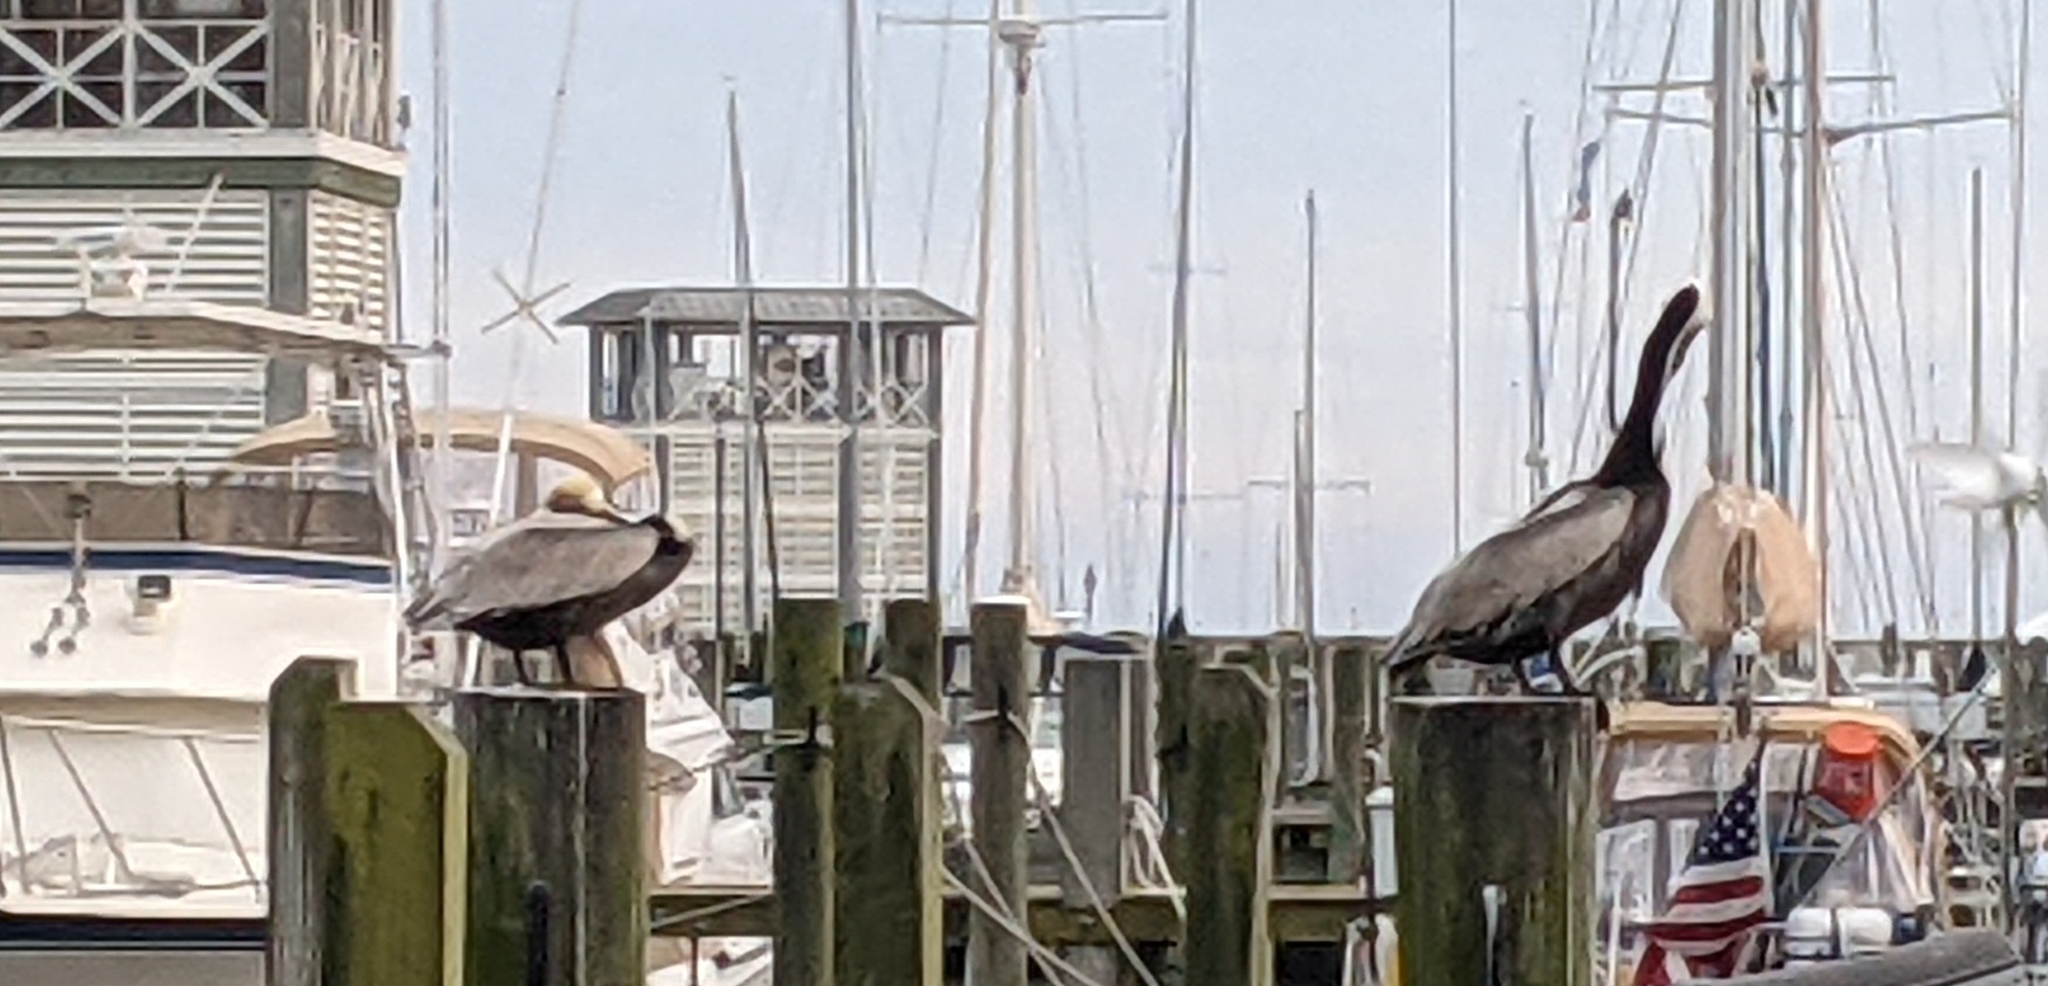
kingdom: Animalia
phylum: Chordata
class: Aves
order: Pelecaniformes
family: Pelecanidae
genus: Pelecanus
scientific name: Pelecanus occidentalis
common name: Brown pelican
